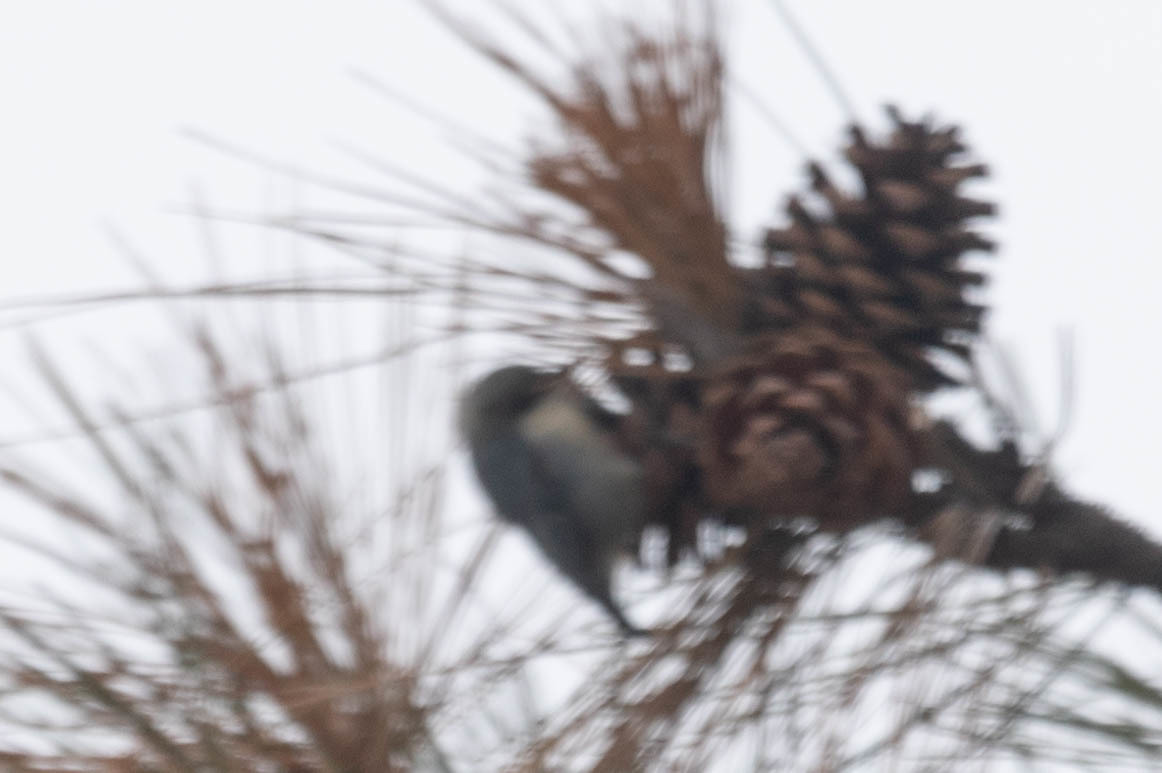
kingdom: Animalia
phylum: Chordata
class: Aves
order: Passeriformes
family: Sittidae
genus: Sitta
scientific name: Sitta pygmaea
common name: Pygmy nuthatch
